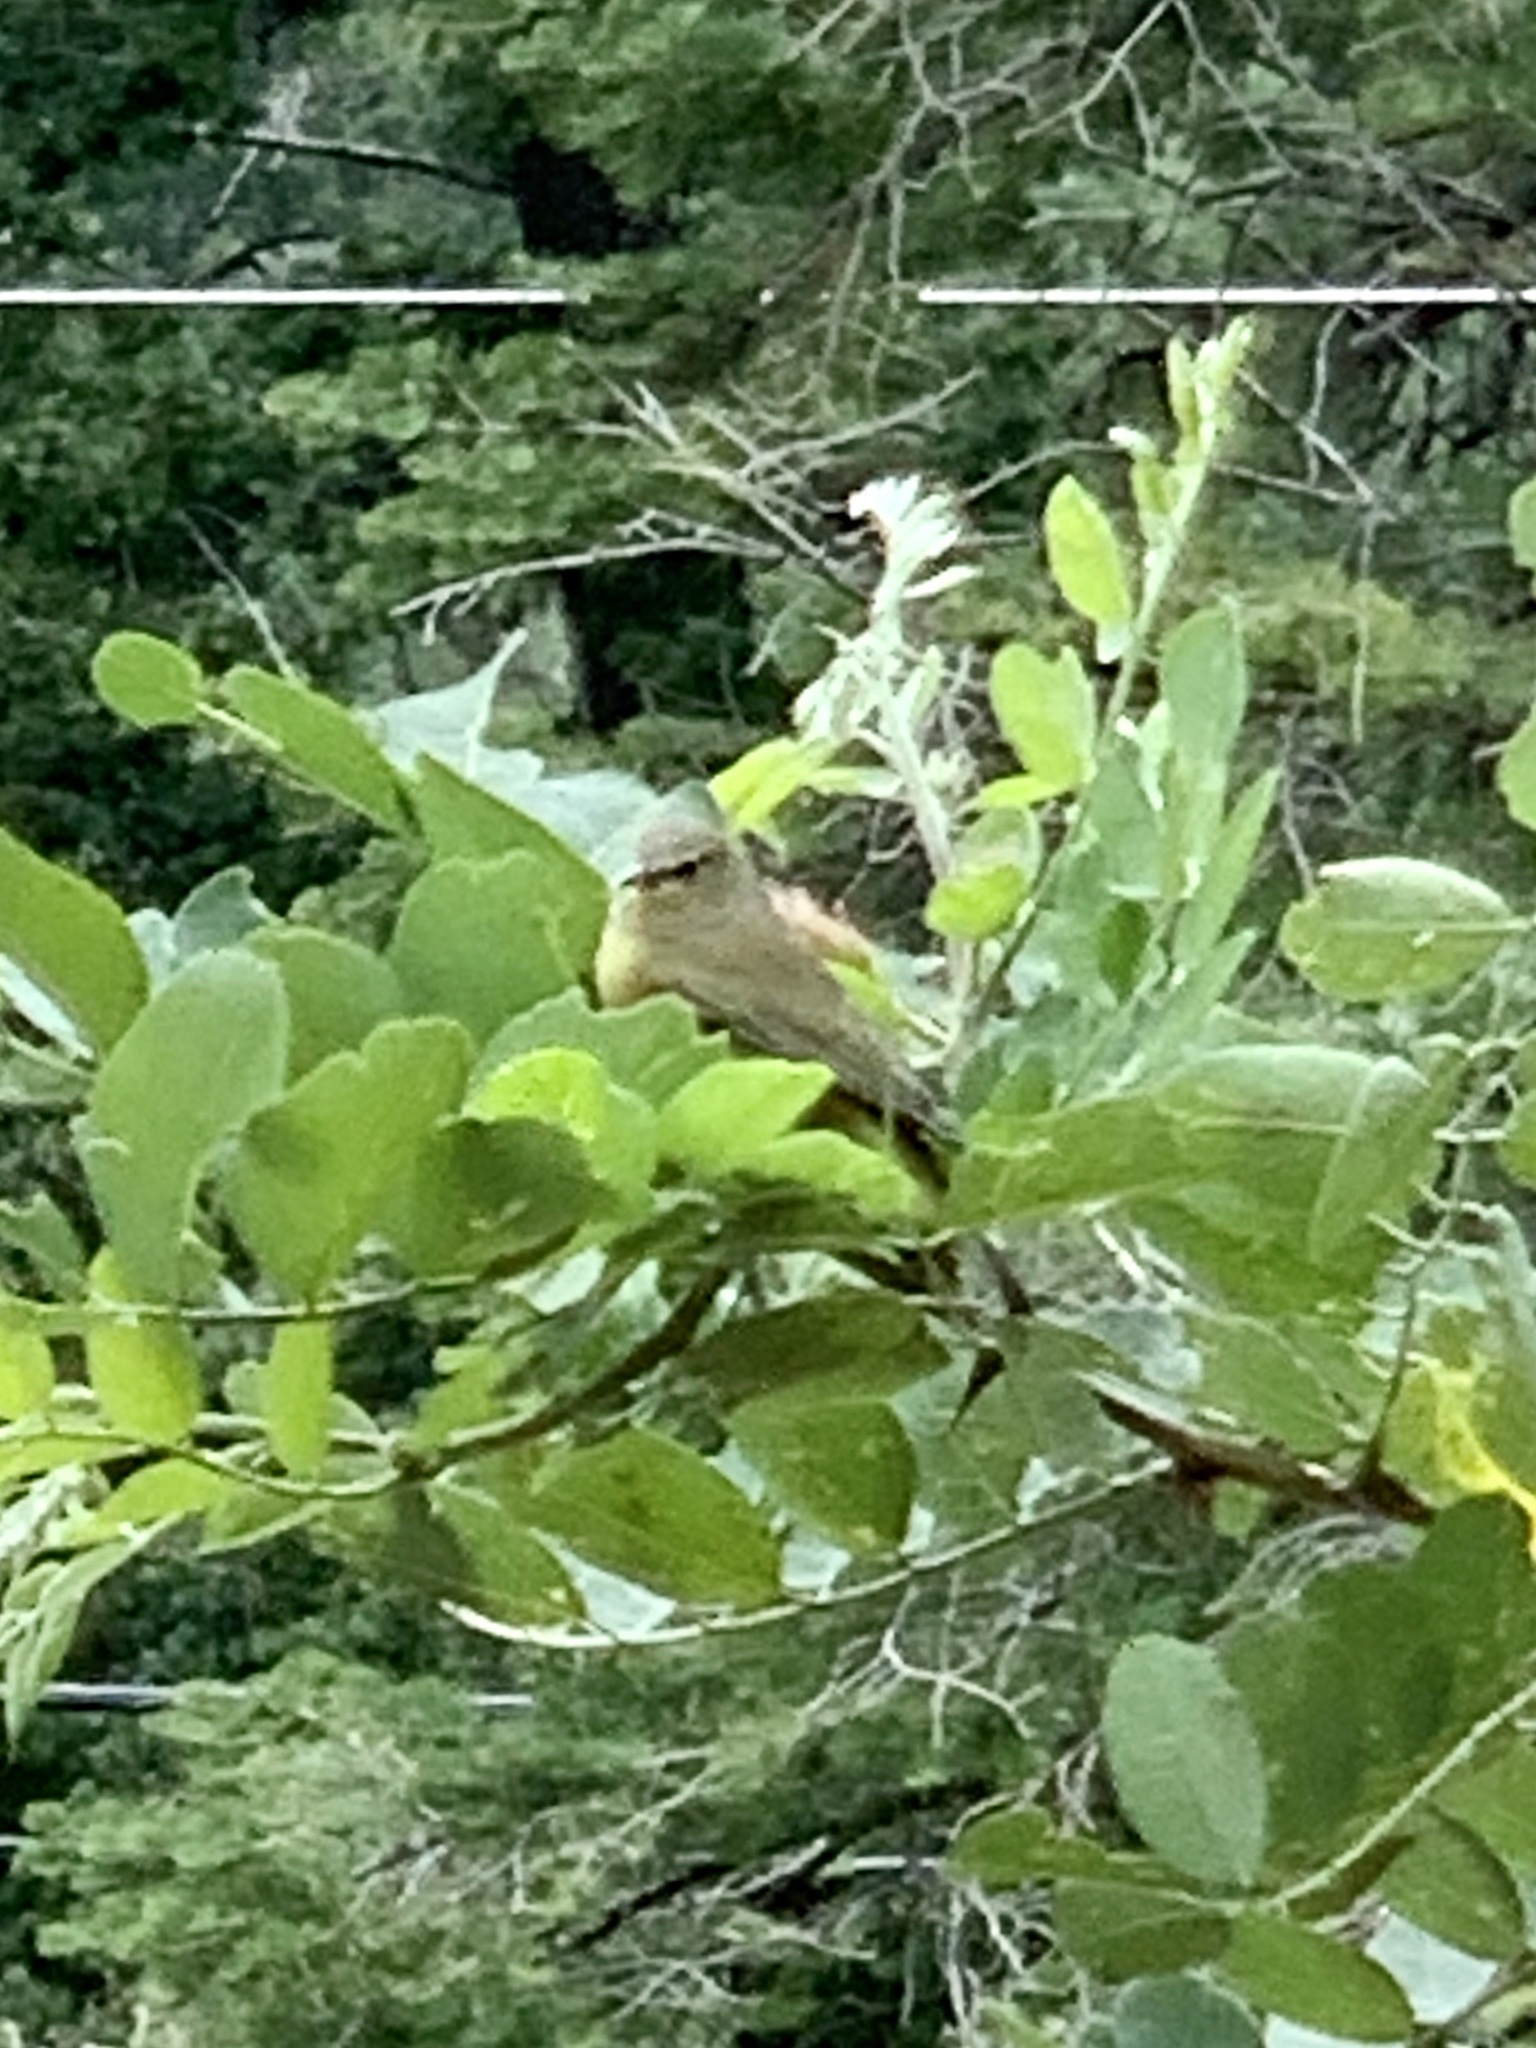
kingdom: Animalia
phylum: Chordata
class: Aves
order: Passeriformes
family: Parulidae
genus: Leiothlypis
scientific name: Leiothlypis celata
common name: Orange-crowned warbler
